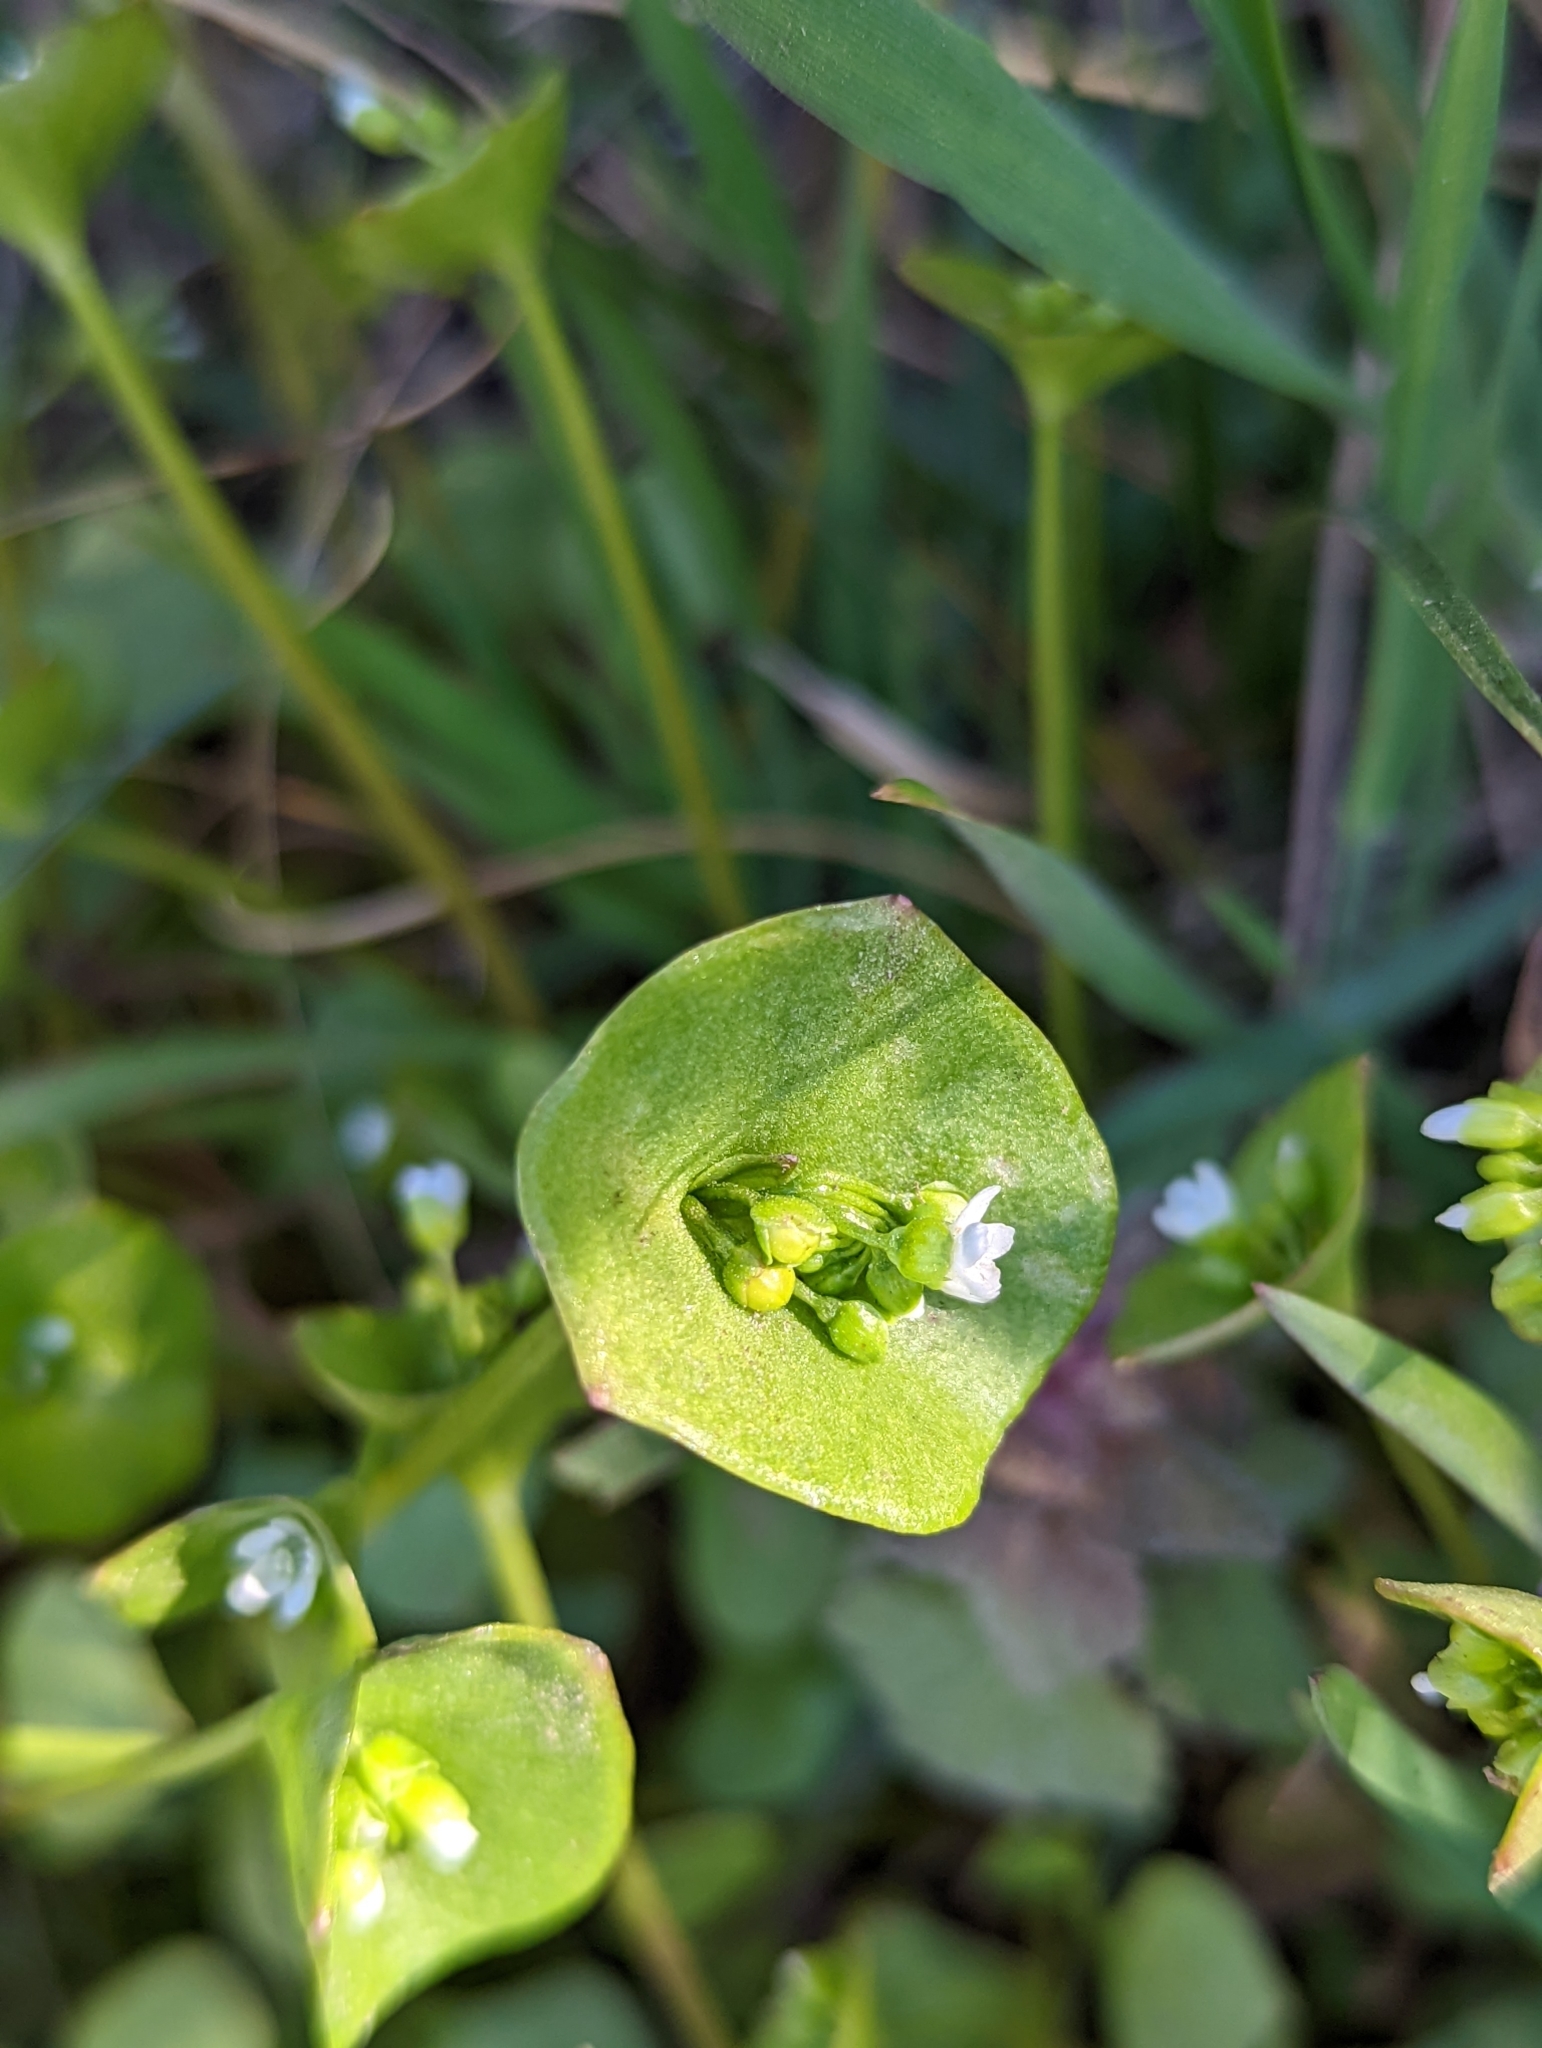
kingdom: Plantae
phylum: Tracheophyta
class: Magnoliopsida
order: Caryophyllales
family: Montiaceae
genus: Claytonia
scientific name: Claytonia perfoliata
